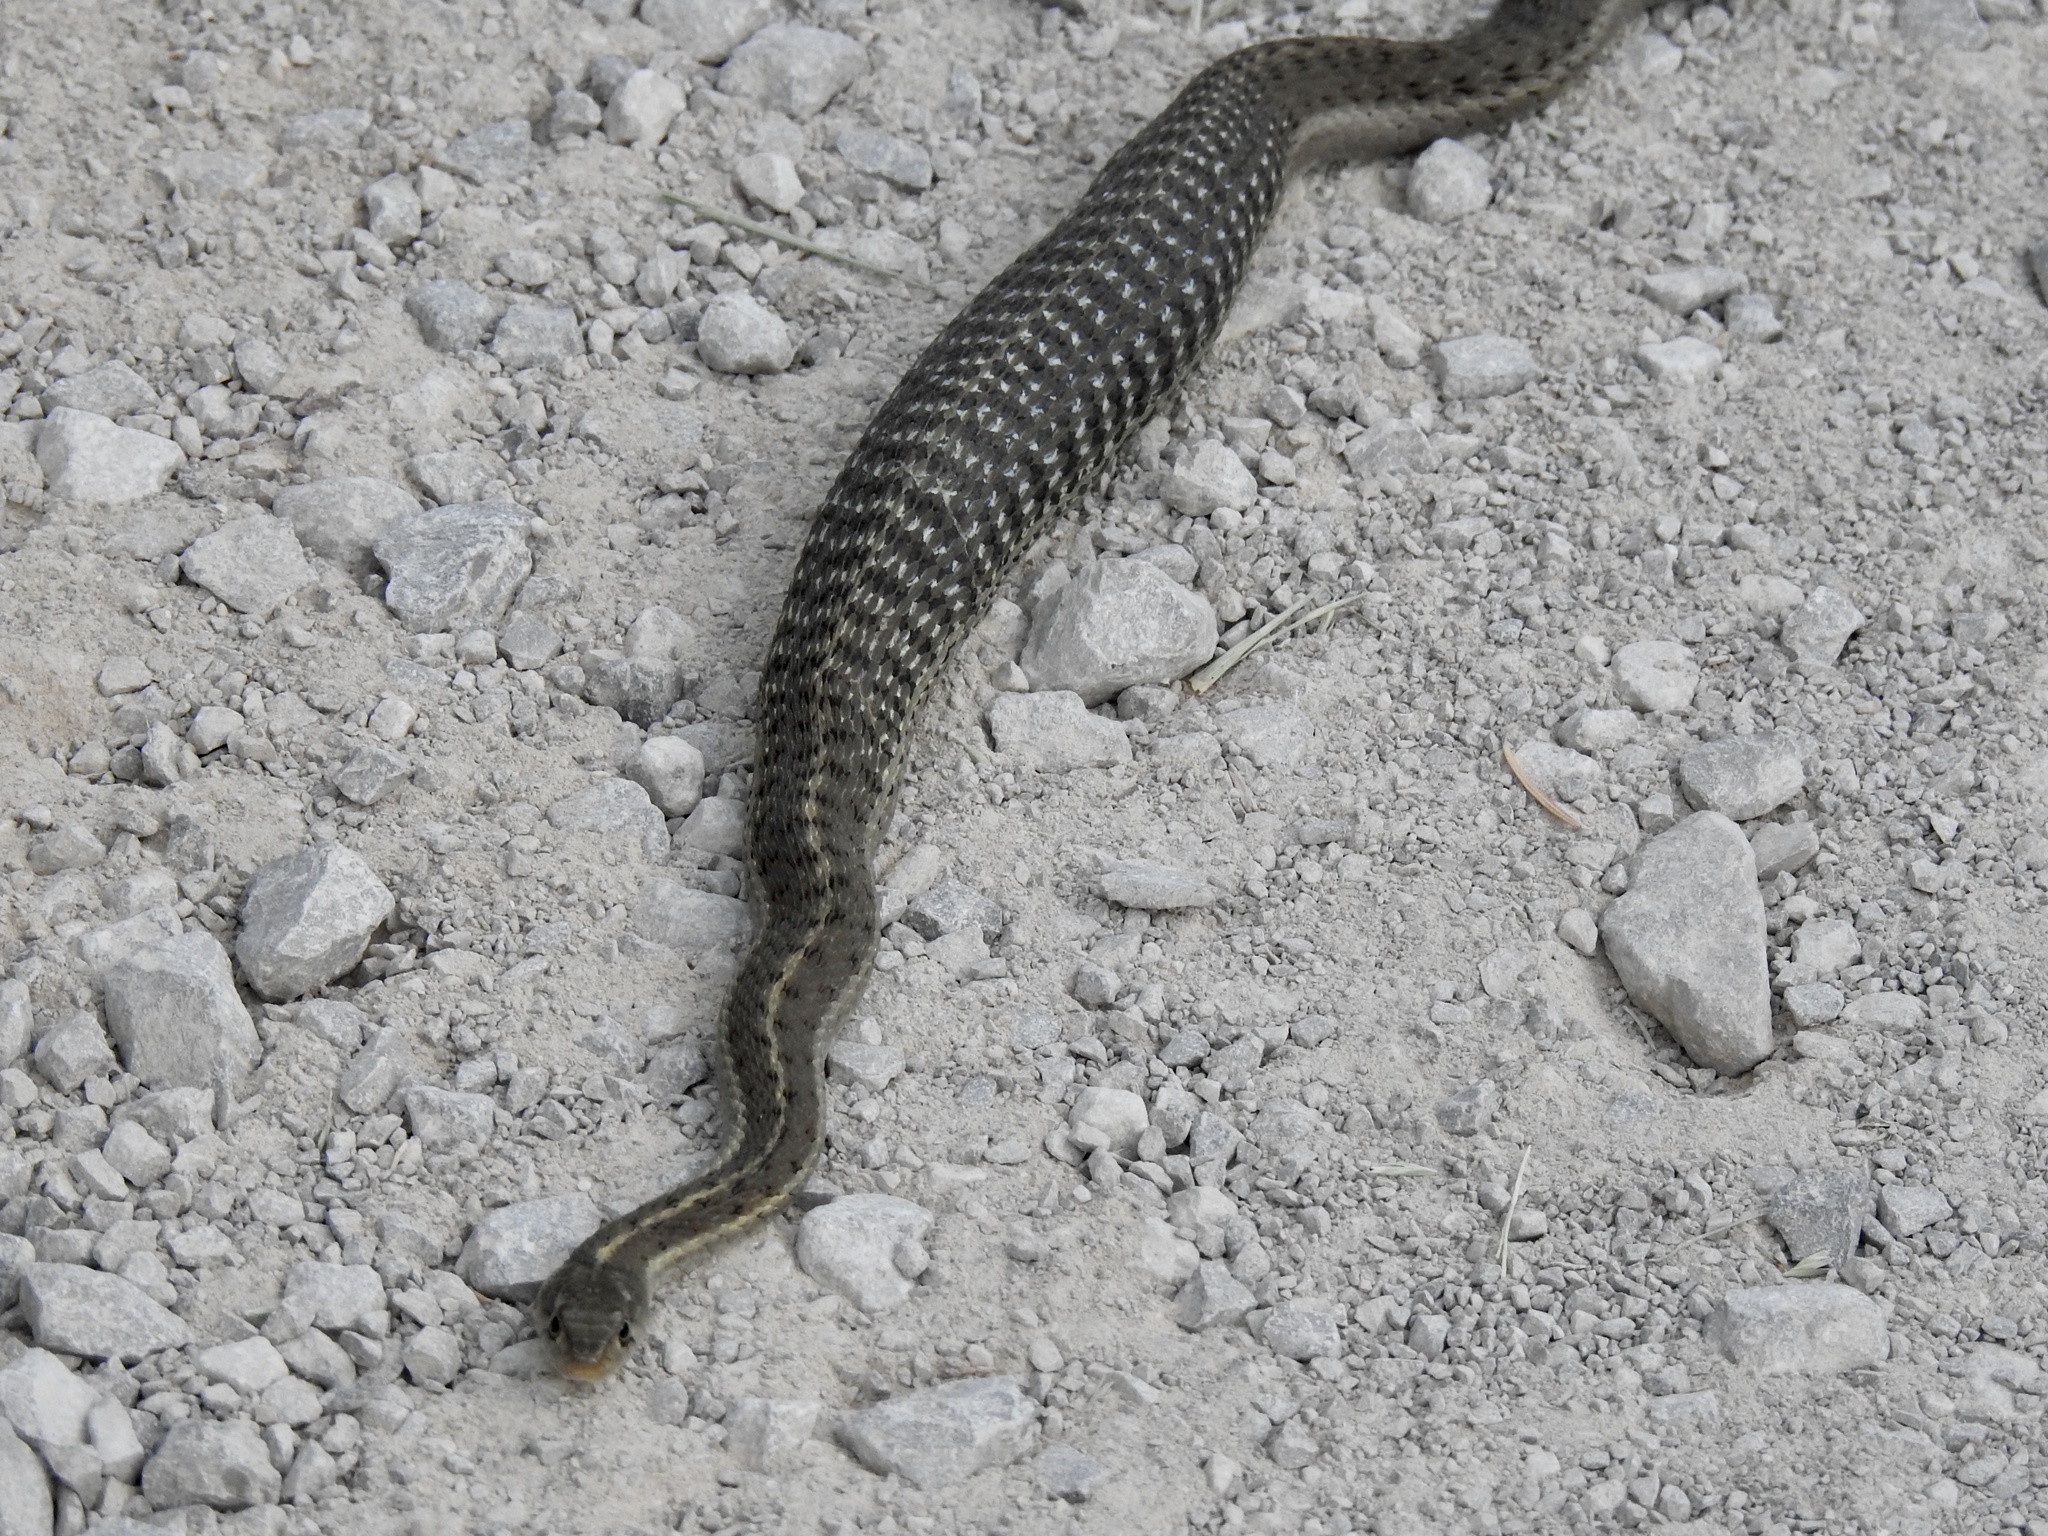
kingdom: Animalia
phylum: Chordata
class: Squamata
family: Colubridae
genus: Thamnophis
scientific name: Thamnophis elegans
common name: Western terrestrial garter snake
